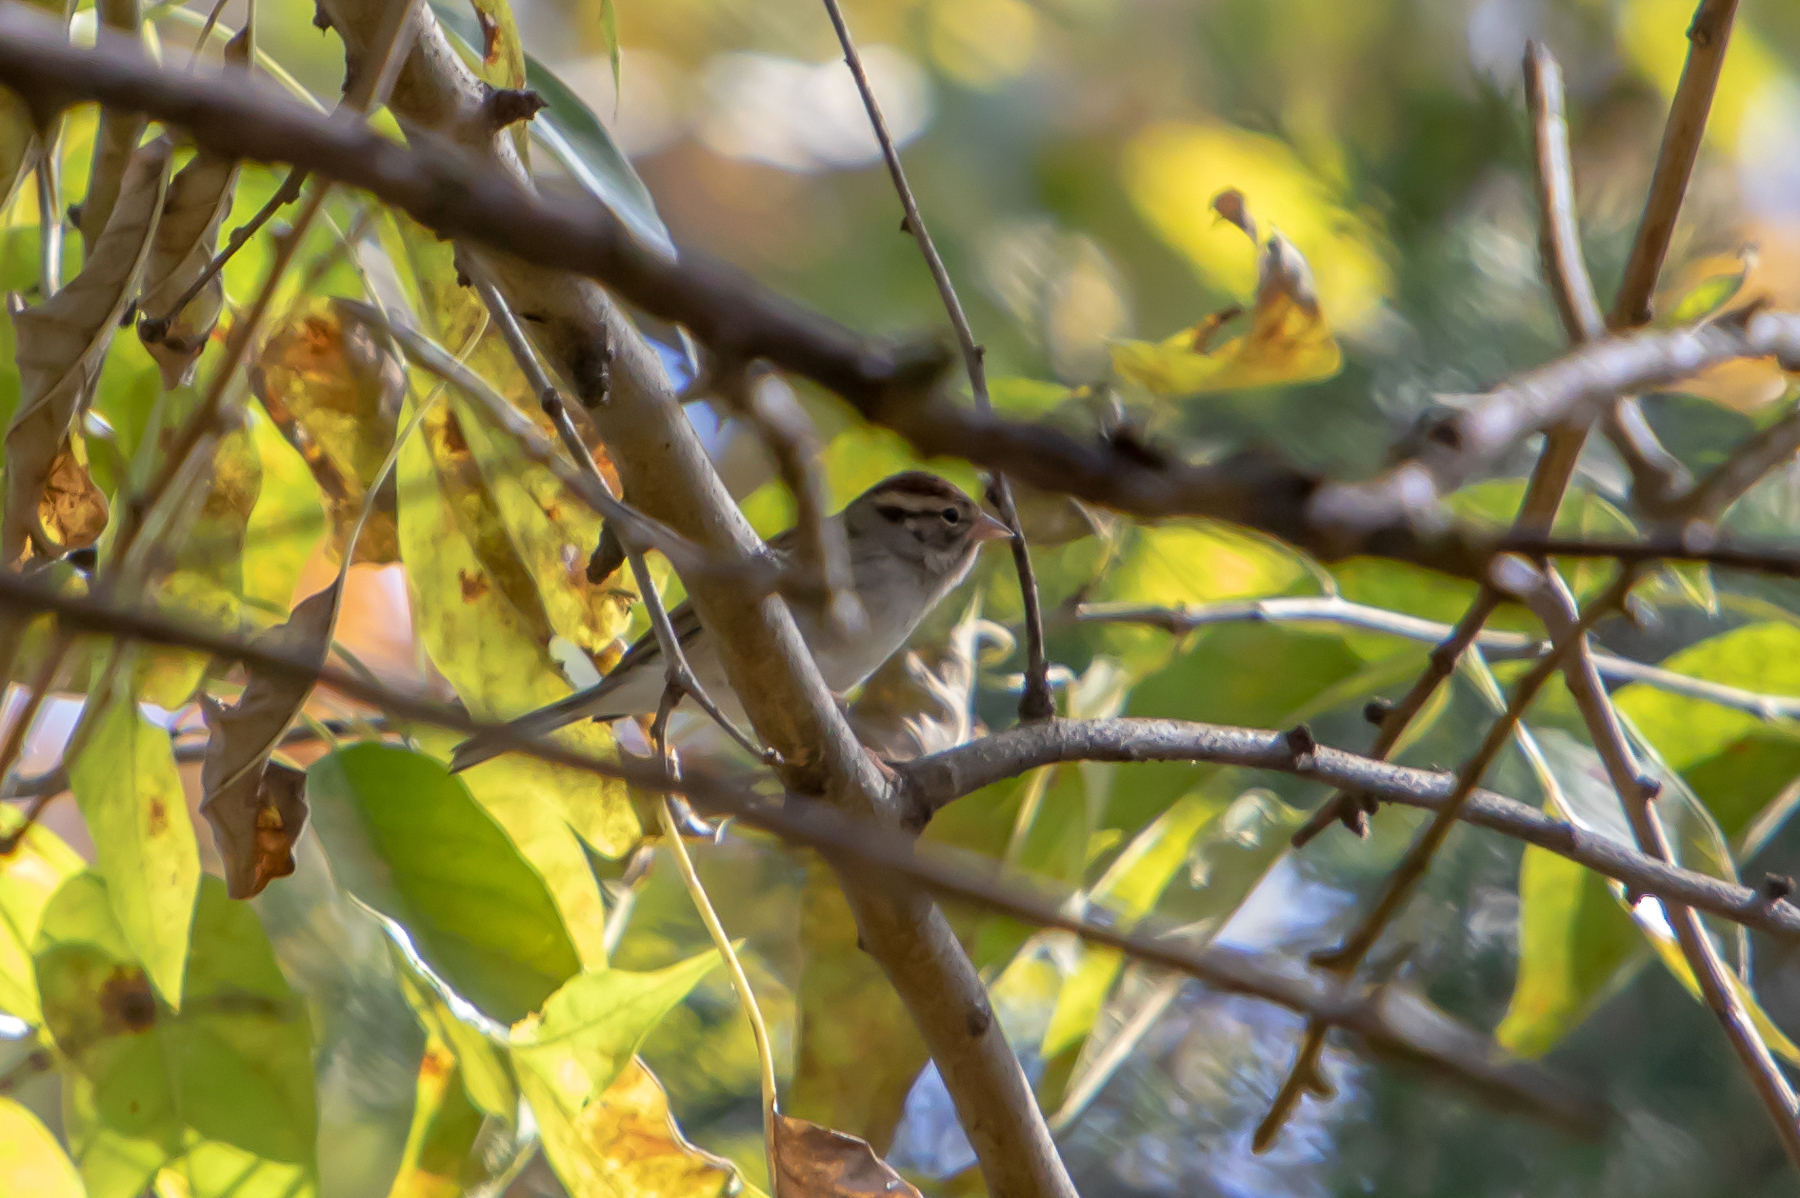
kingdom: Animalia
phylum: Chordata
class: Aves
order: Passeriformes
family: Passerellidae
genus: Spizella
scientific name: Spizella passerina
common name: Chipping sparrow
